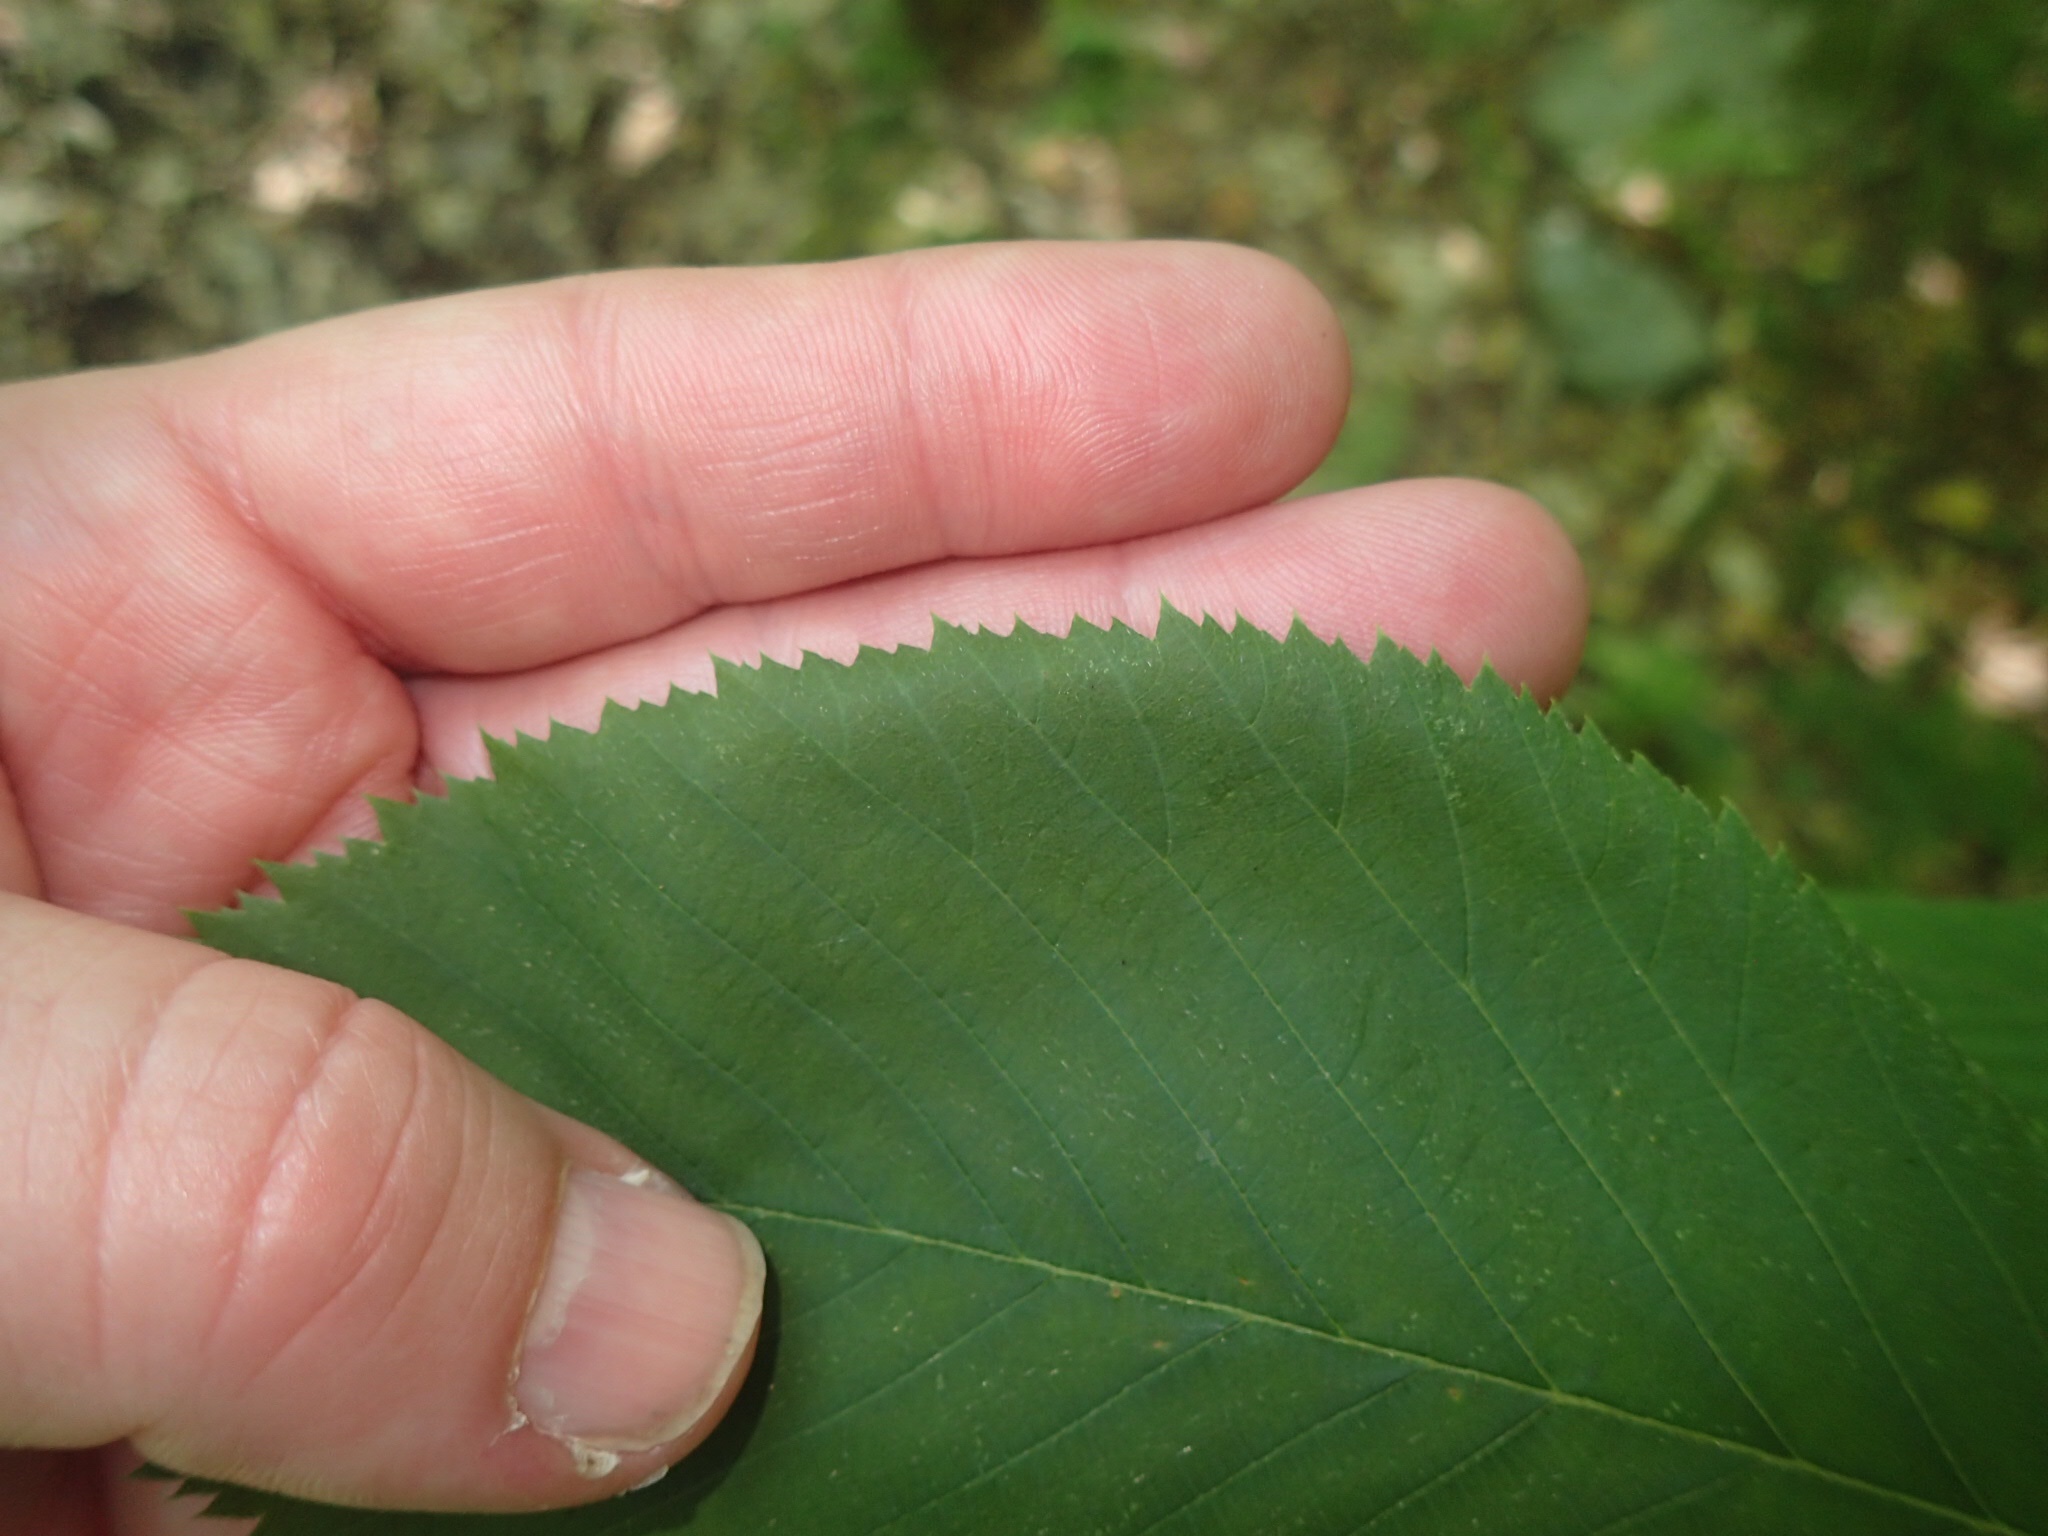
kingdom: Plantae
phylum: Tracheophyta
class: Magnoliopsida
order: Fagales
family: Betulaceae
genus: Ostrya
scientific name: Ostrya virginiana
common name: Ironwood
